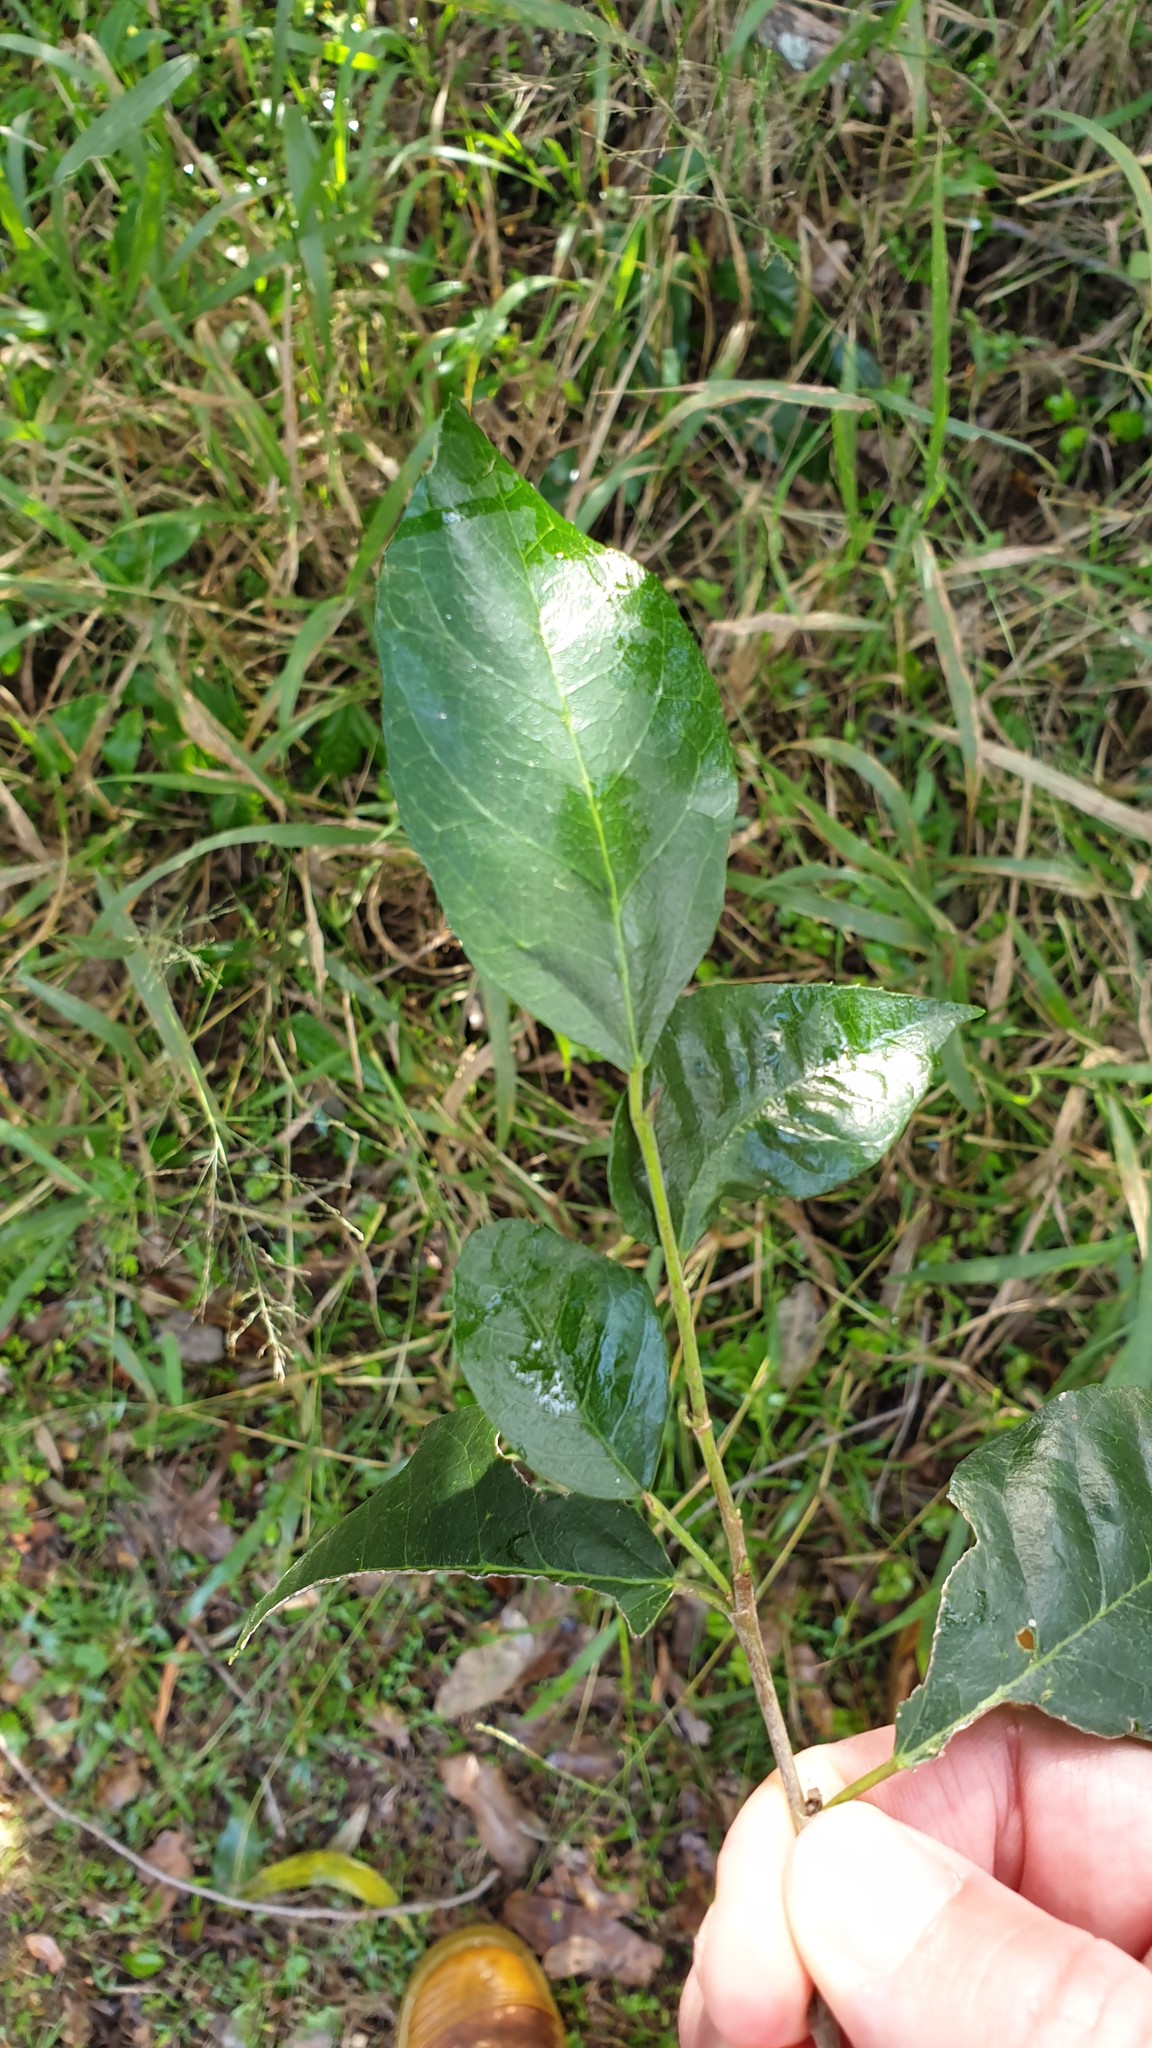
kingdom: Plantae
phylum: Tracheophyta
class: Magnoliopsida
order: Rosales
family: Moraceae
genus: Paratrophis
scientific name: Paratrophis pendulina
